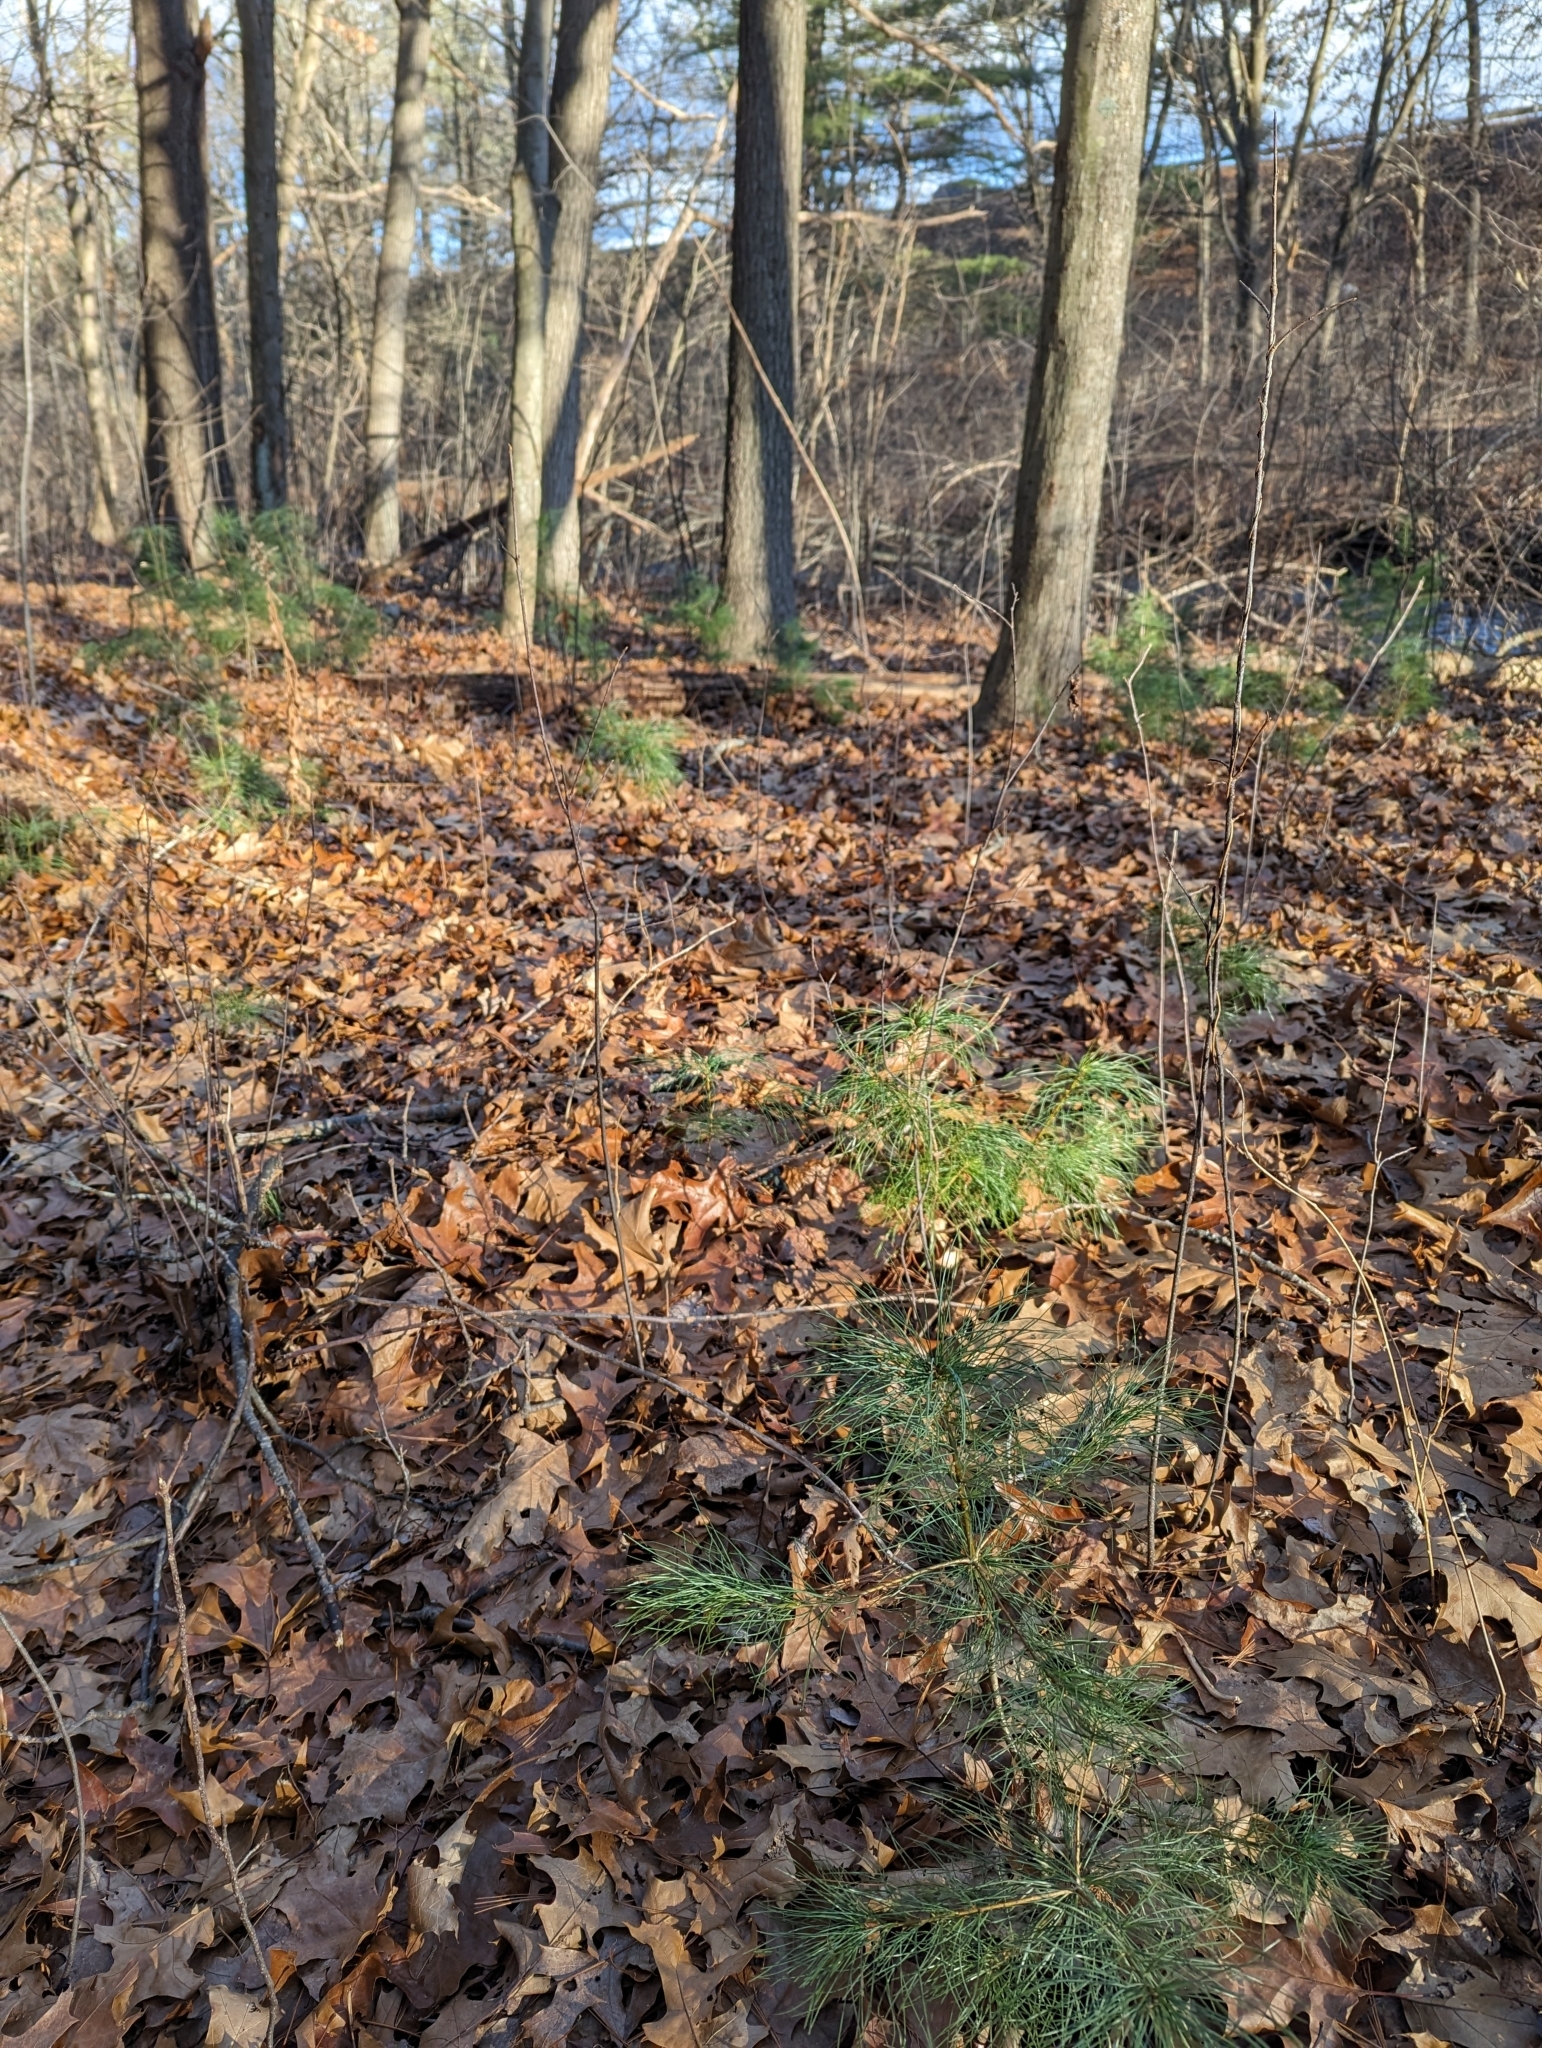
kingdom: Plantae
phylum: Tracheophyta
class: Pinopsida
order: Pinales
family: Pinaceae
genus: Pinus
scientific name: Pinus strobus
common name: Weymouth pine
